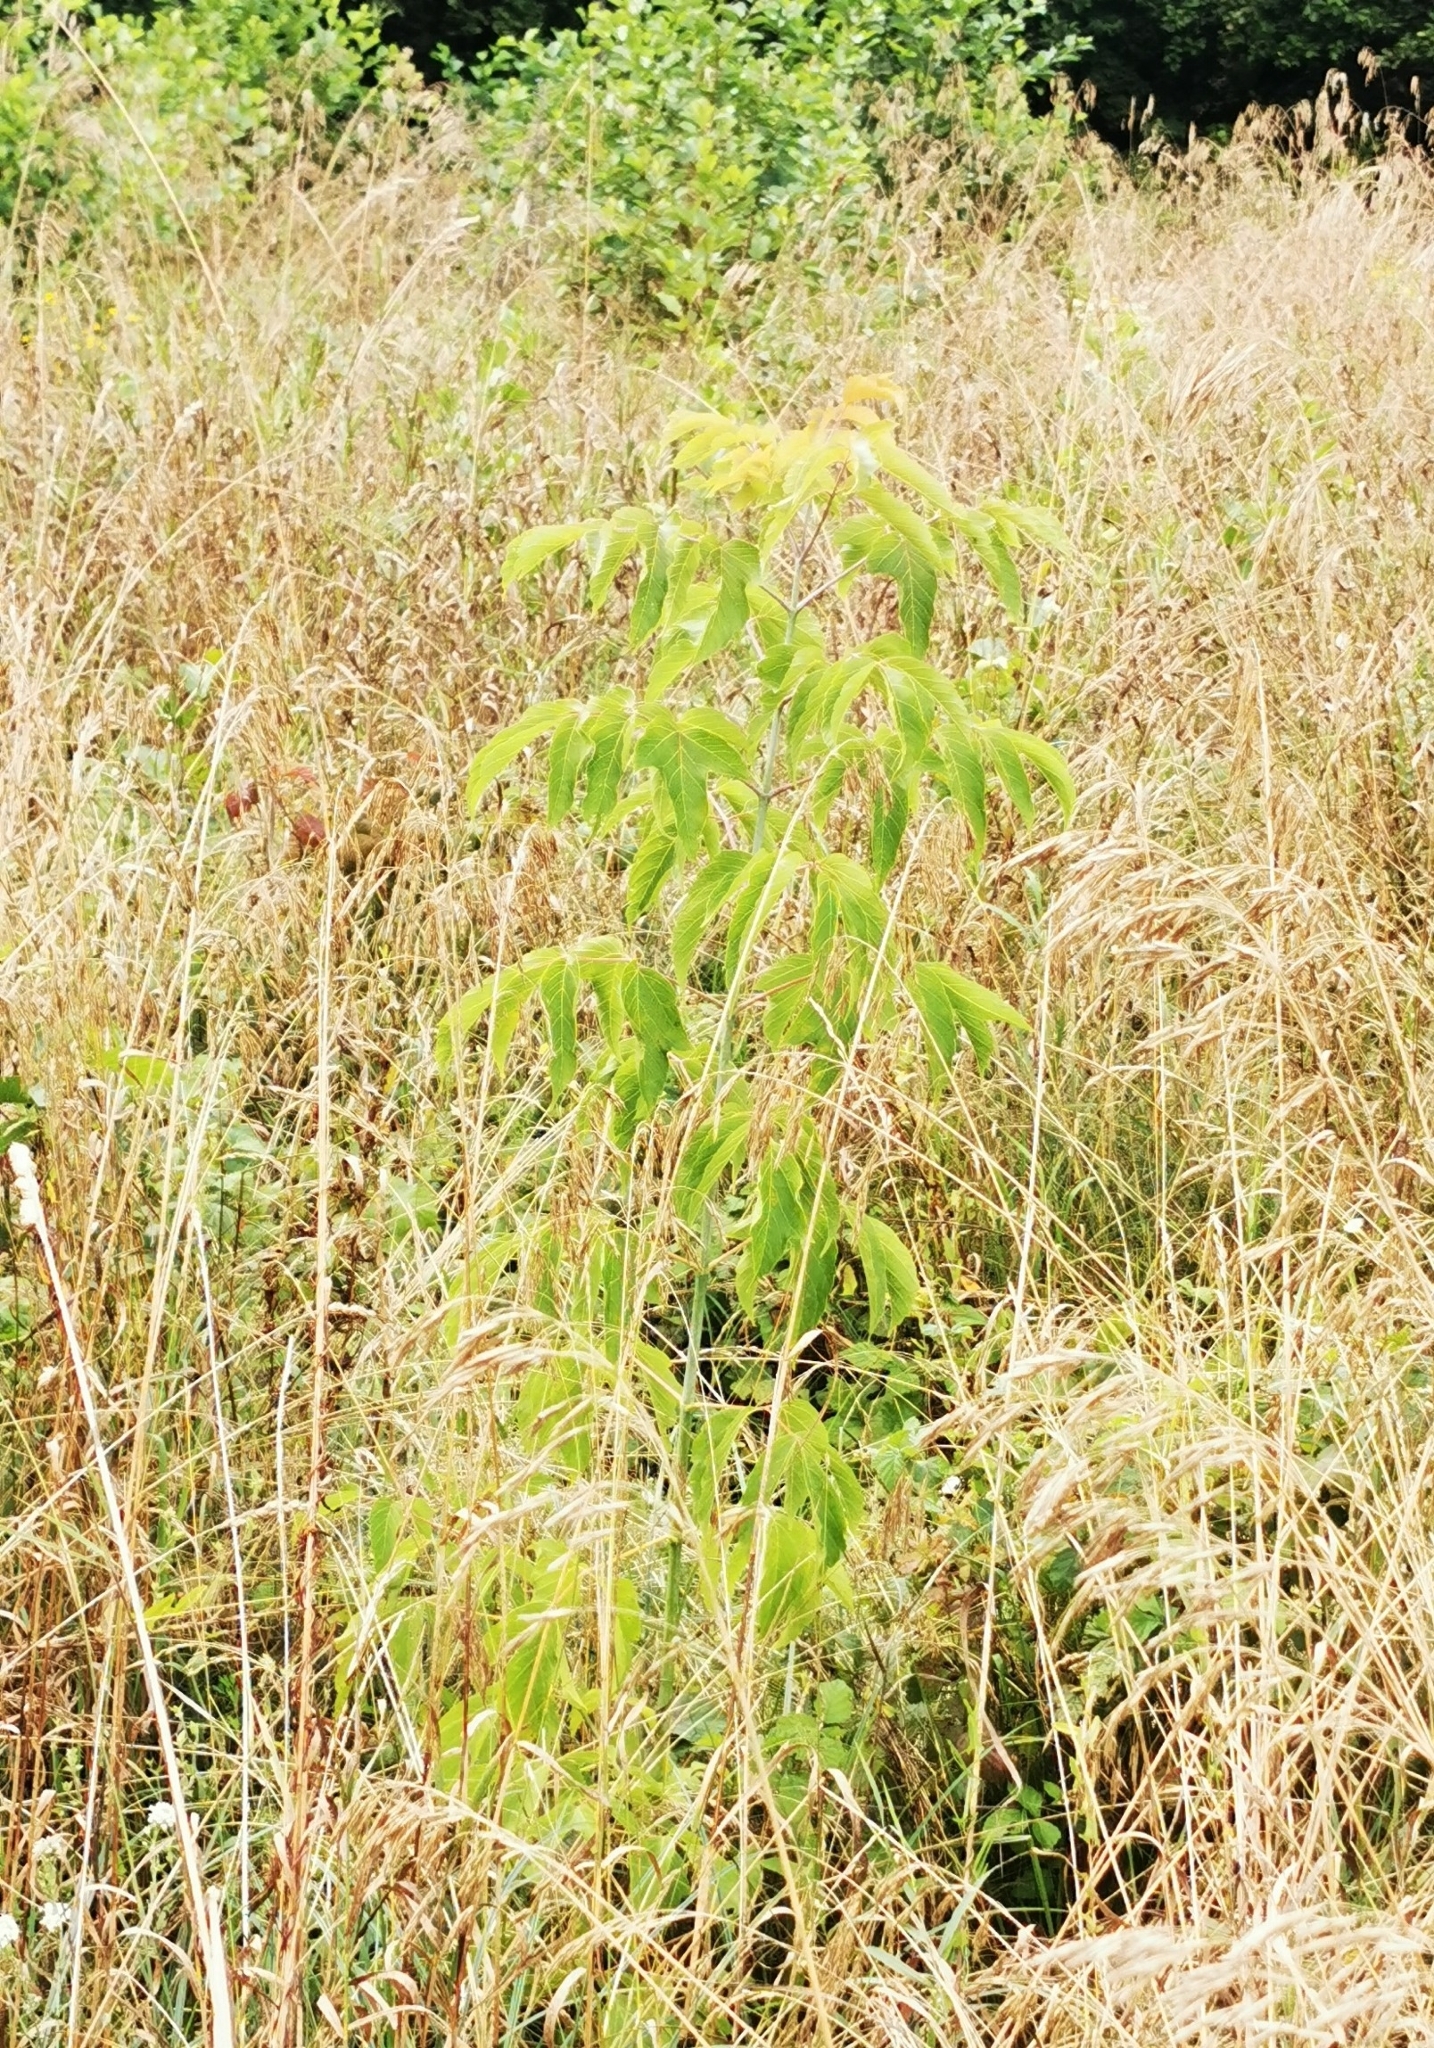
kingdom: Plantae
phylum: Tracheophyta
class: Magnoliopsida
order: Sapindales
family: Sapindaceae
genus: Acer
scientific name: Acer negundo
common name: Ashleaf maple
